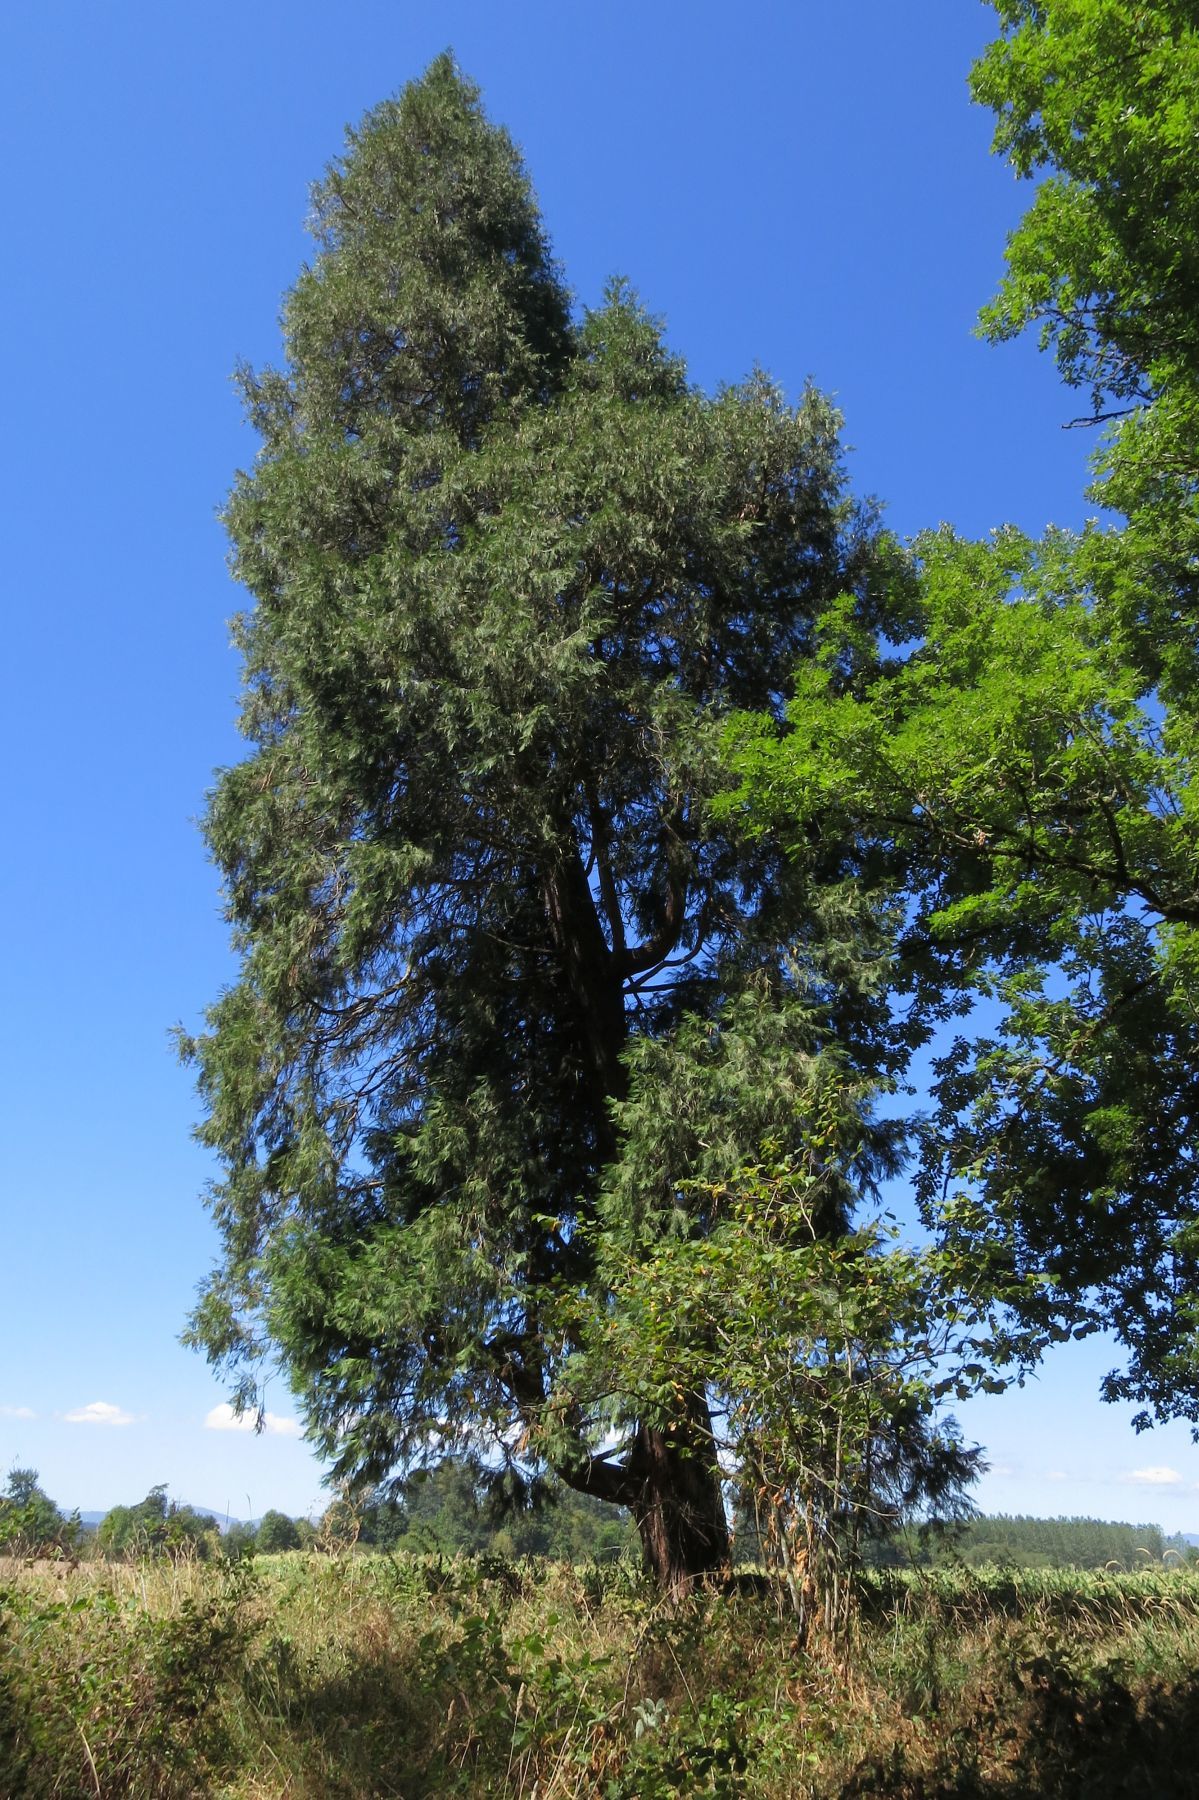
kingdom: Plantae
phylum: Tracheophyta
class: Pinopsida
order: Pinales
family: Cupressaceae
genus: Calocedrus
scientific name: Calocedrus decurrens
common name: Californian incense-cedar
